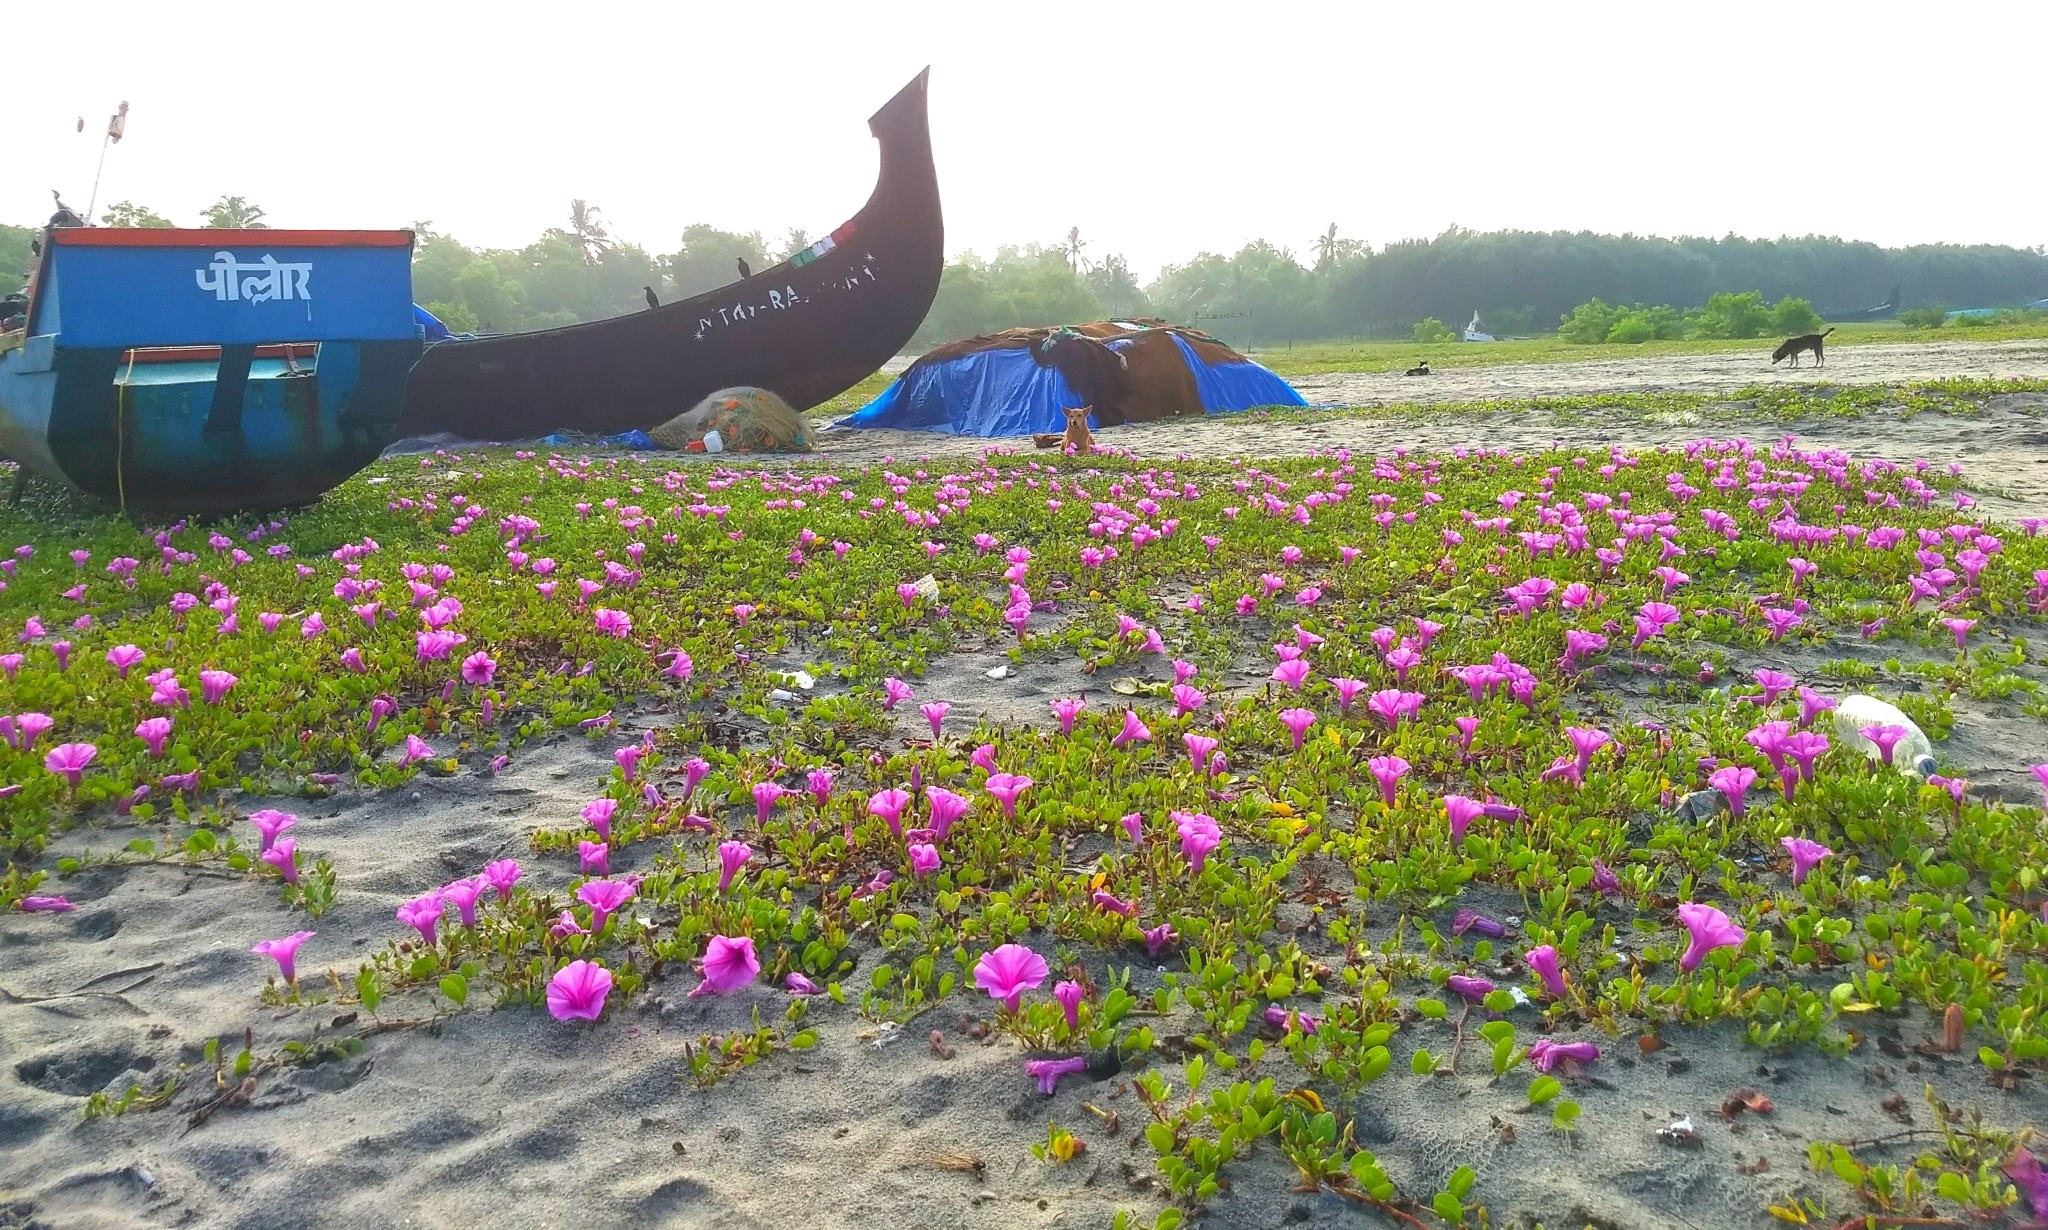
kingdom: Plantae
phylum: Tracheophyta
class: Magnoliopsida
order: Solanales
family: Convolvulaceae
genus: Ipomoea
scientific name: Ipomoea pes-caprae
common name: Beach morning glory
